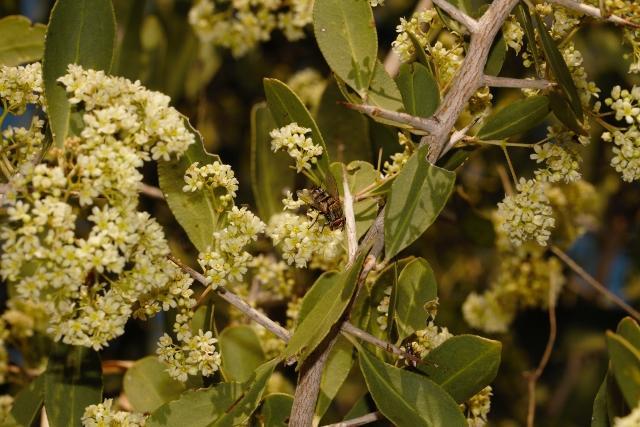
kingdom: Plantae
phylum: Tracheophyta
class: Magnoliopsida
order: Celastrales
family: Celastraceae
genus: Gymnosporia
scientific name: Gymnosporia senegalensis
